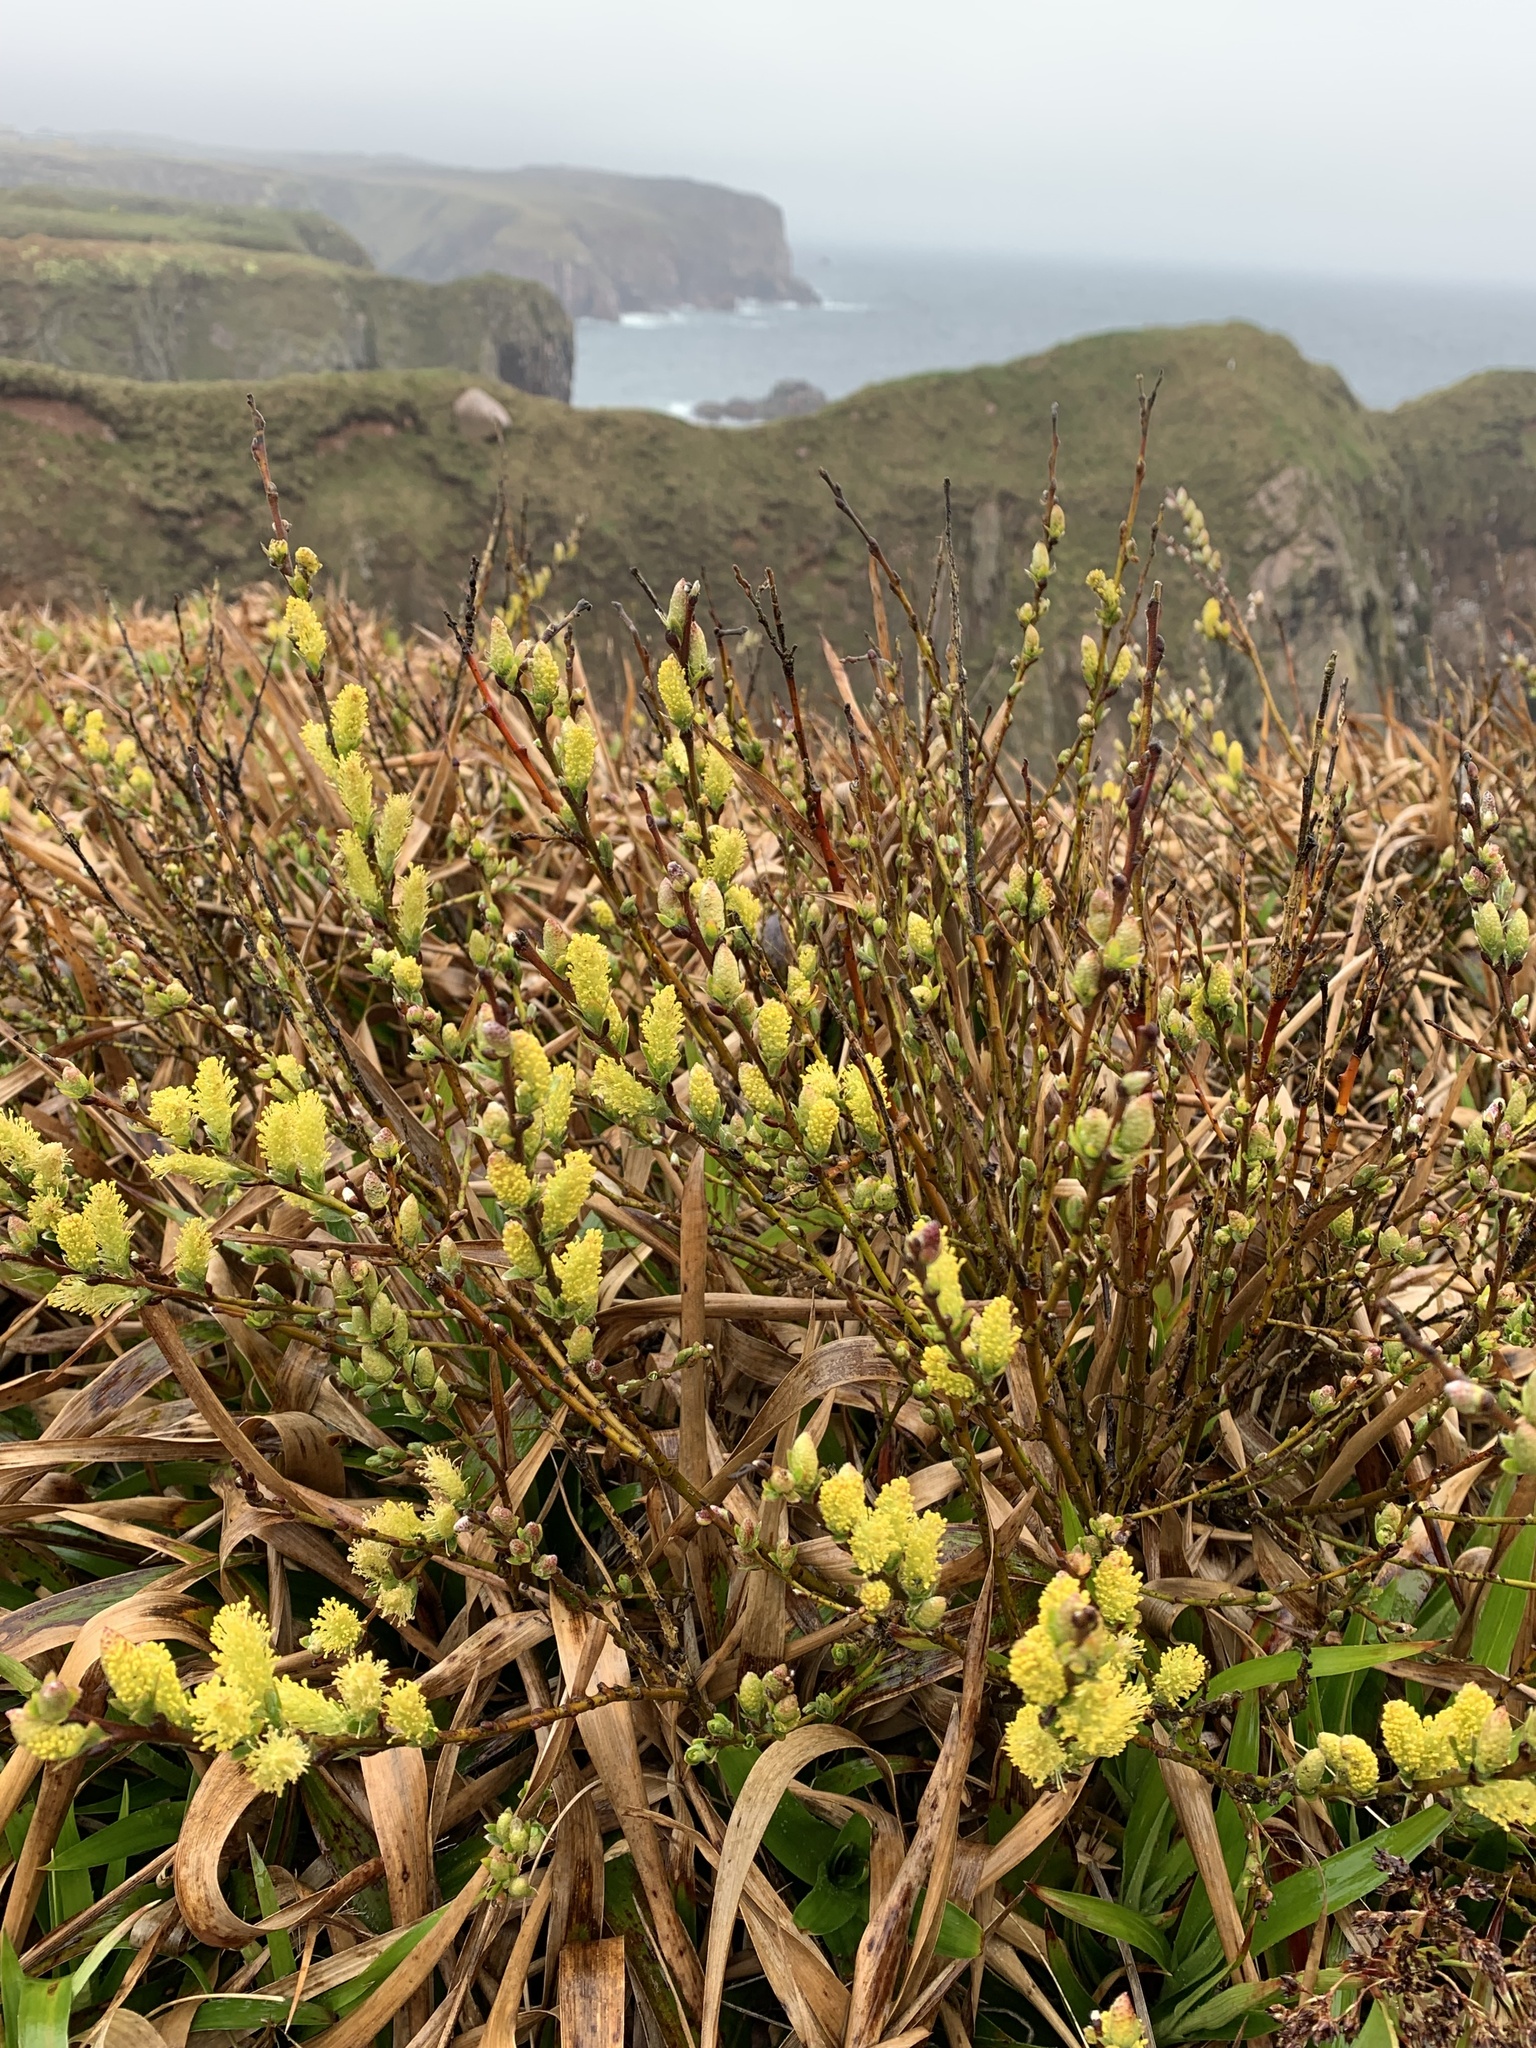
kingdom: Plantae
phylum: Tracheophyta
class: Magnoliopsida
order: Malpighiales
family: Salicaceae
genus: Salix
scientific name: Salix repens
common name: Creeping willow
